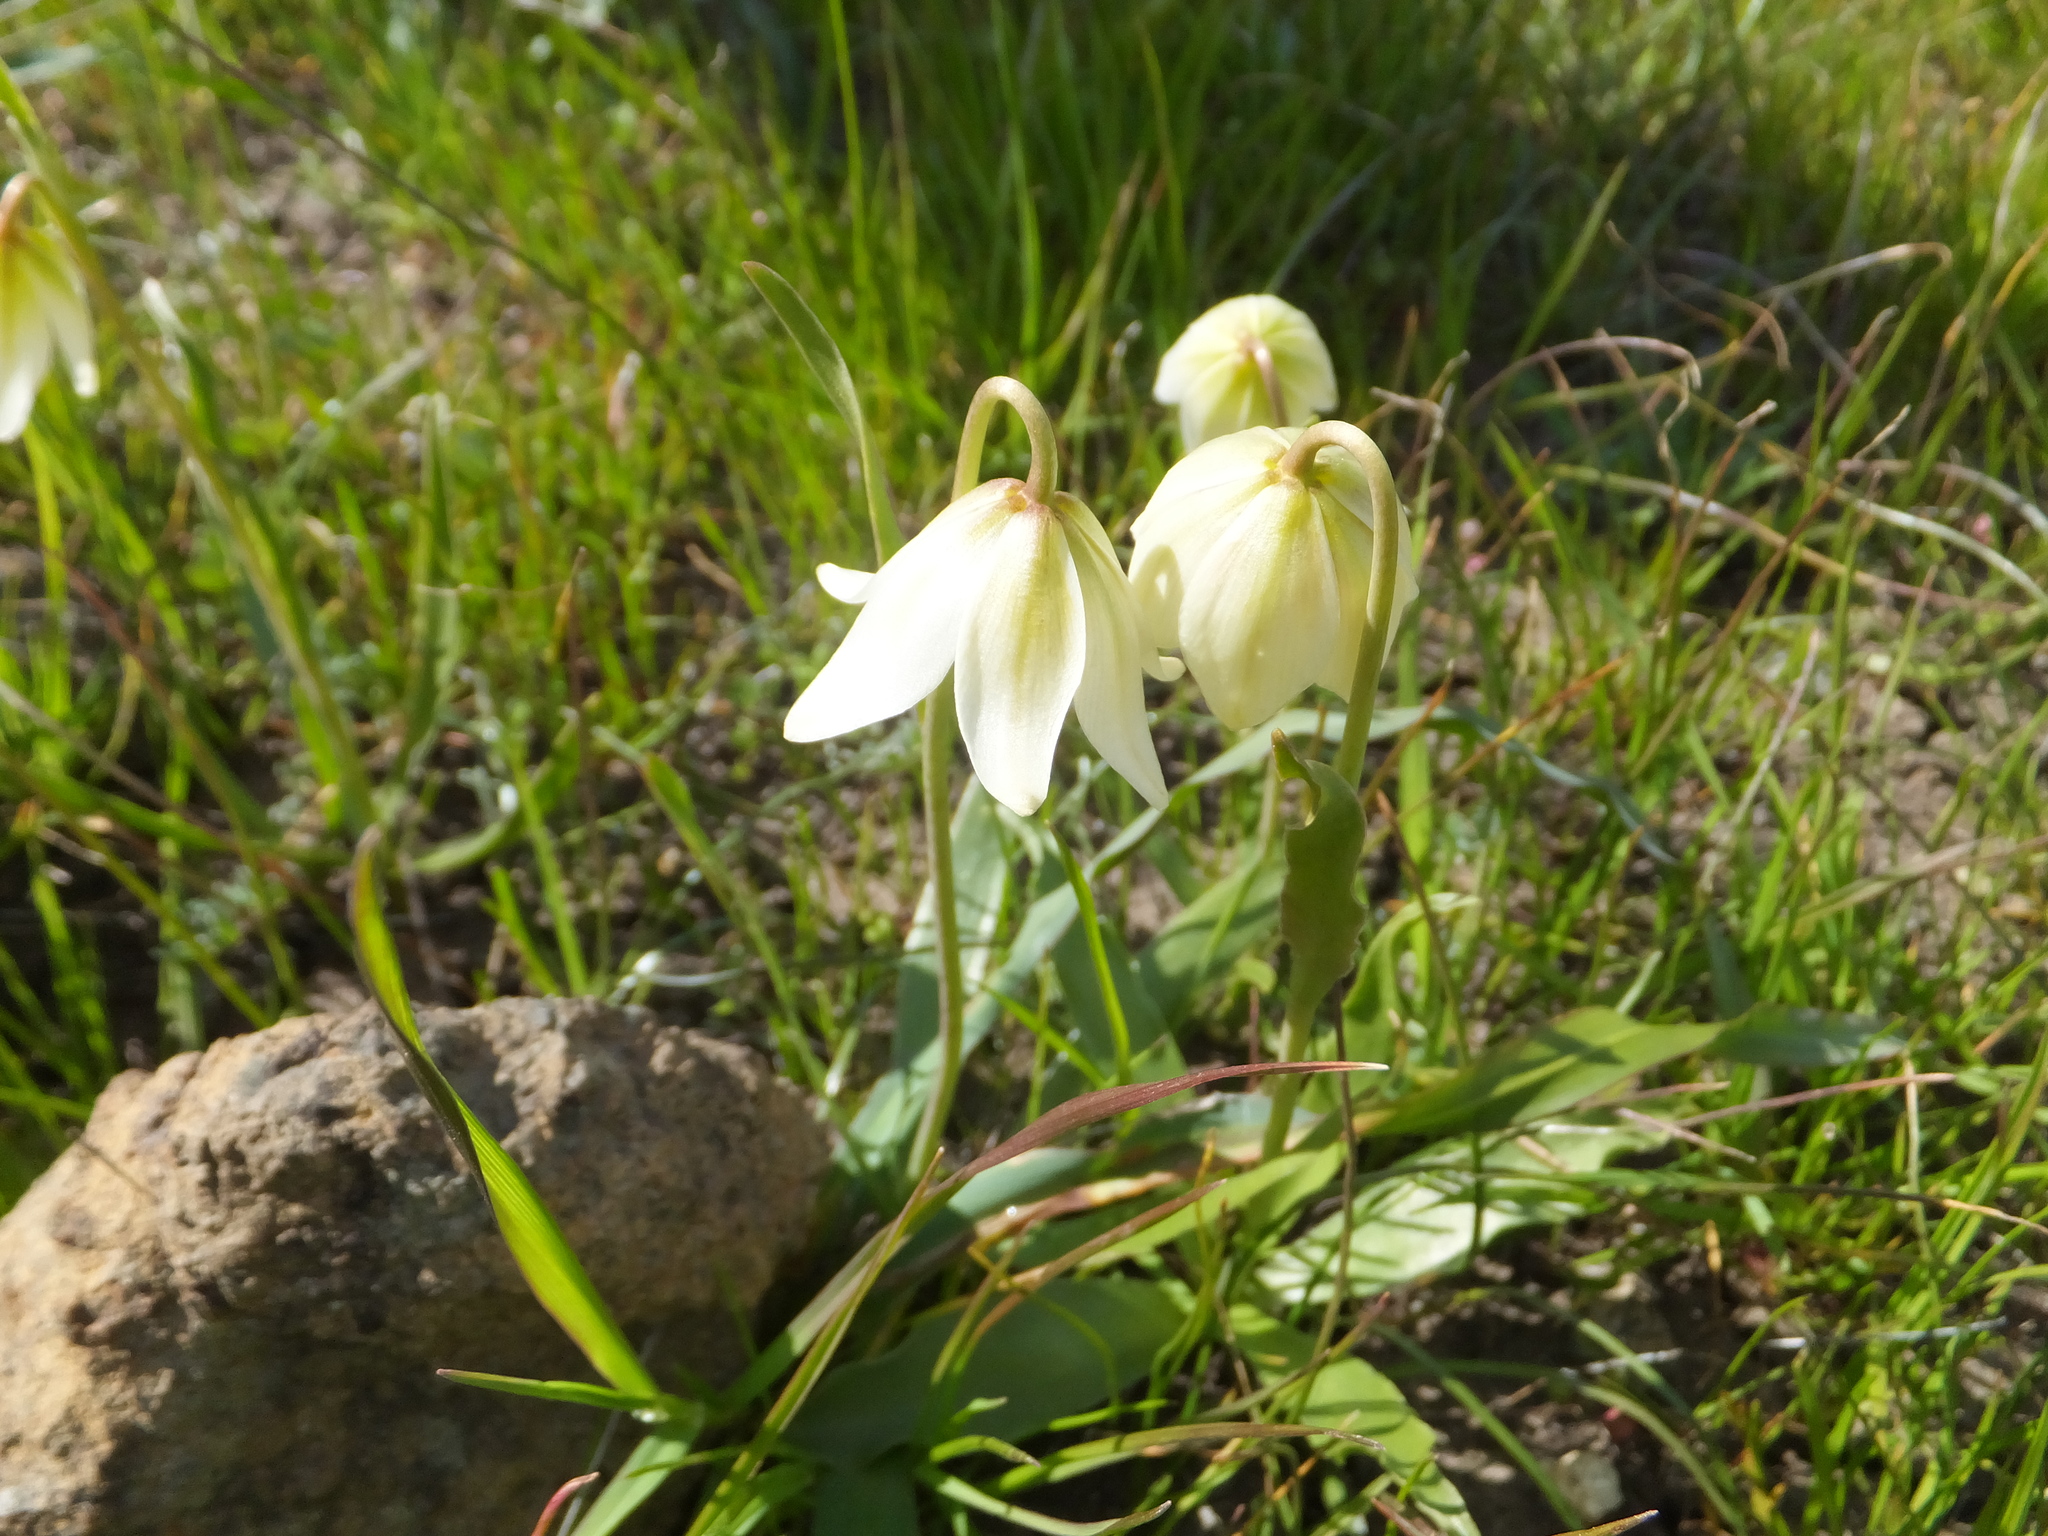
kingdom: Plantae
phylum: Tracheophyta
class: Liliopsida
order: Liliales
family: Liliaceae
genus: Fritillaria
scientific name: Fritillaria liliacea
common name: Fragrant fritillary
